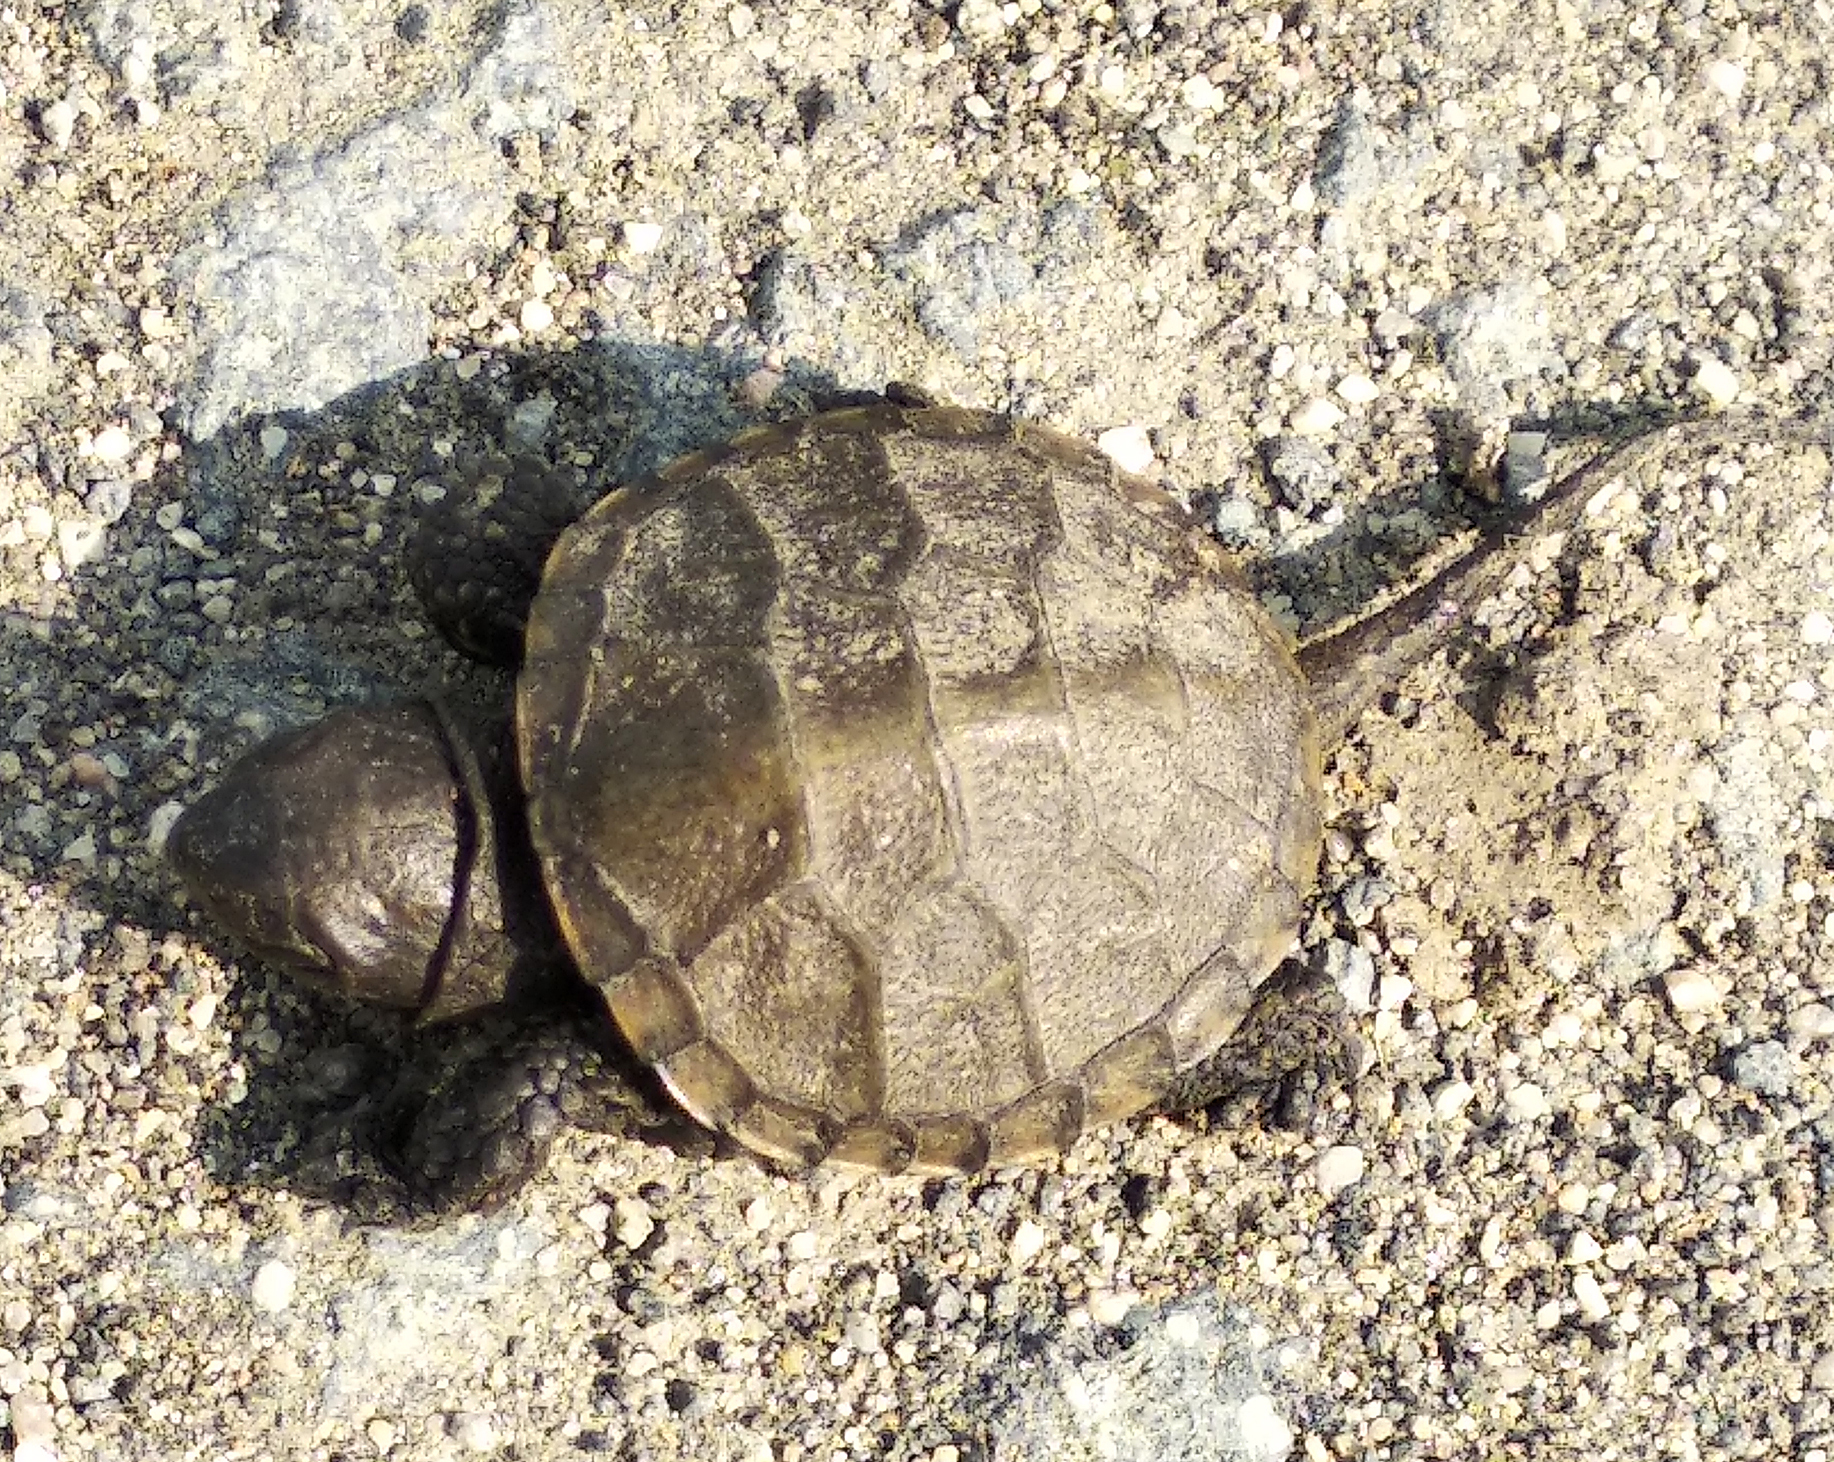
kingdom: Animalia
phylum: Chordata
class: Testudines
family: Emydidae
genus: Emys
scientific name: Emys orbicularis
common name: European pond turtle
